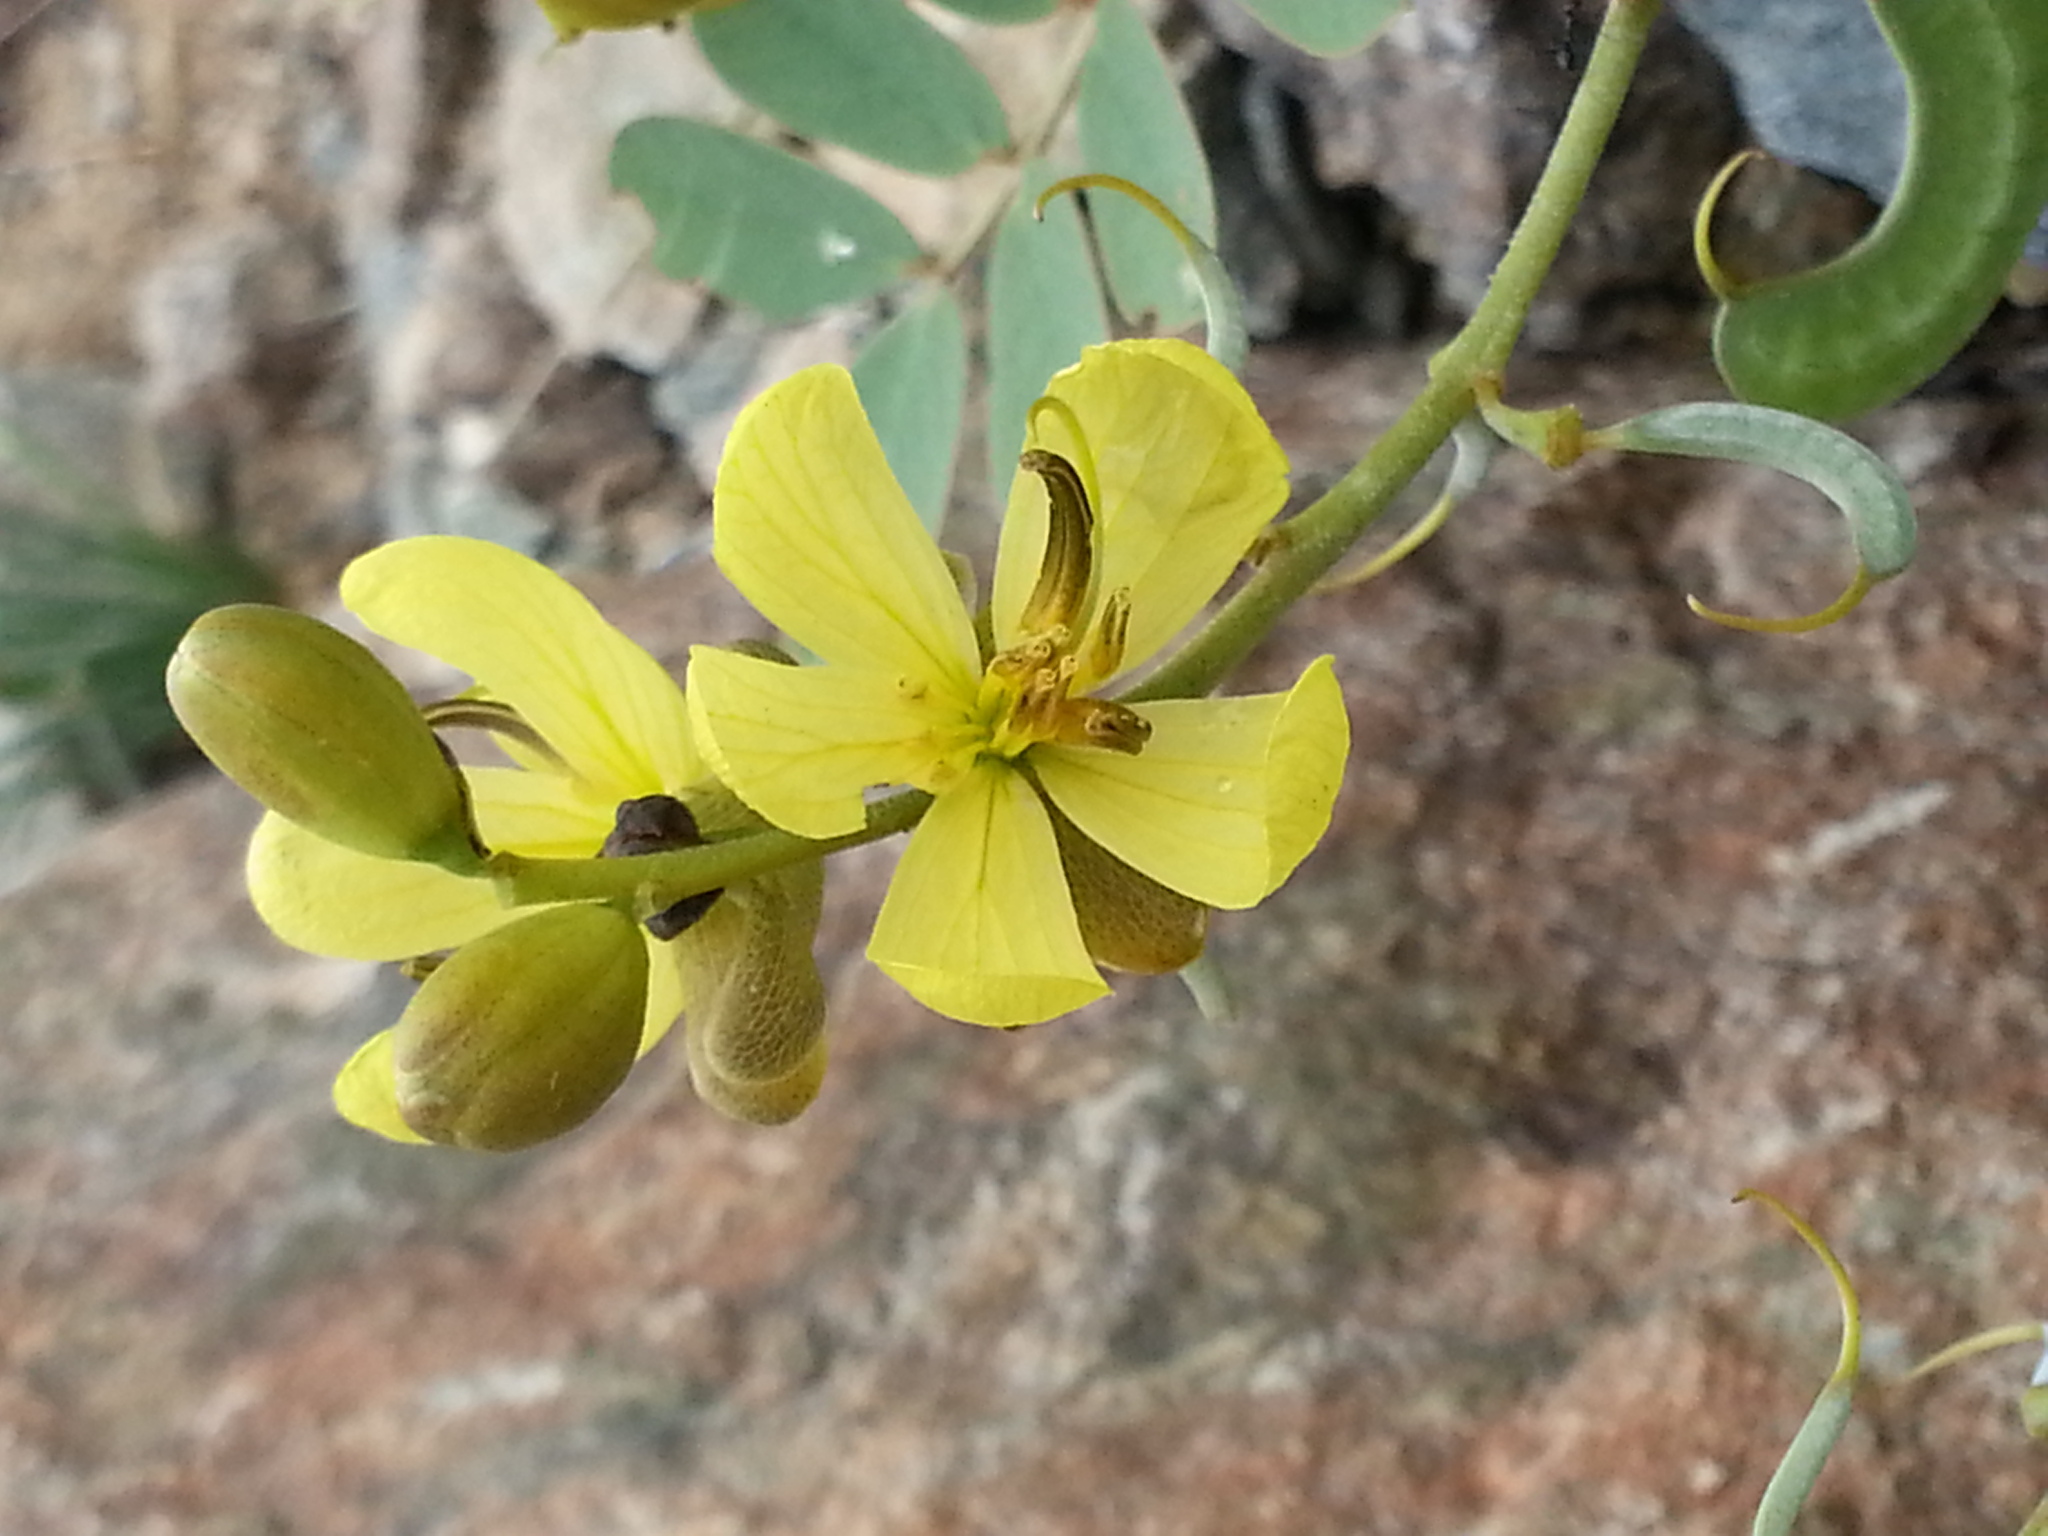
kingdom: Plantae
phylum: Tracheophyta
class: Magnoliopsida
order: Fabales
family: Fabaceae
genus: Senna
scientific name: Senna italica
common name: Port royal senna
